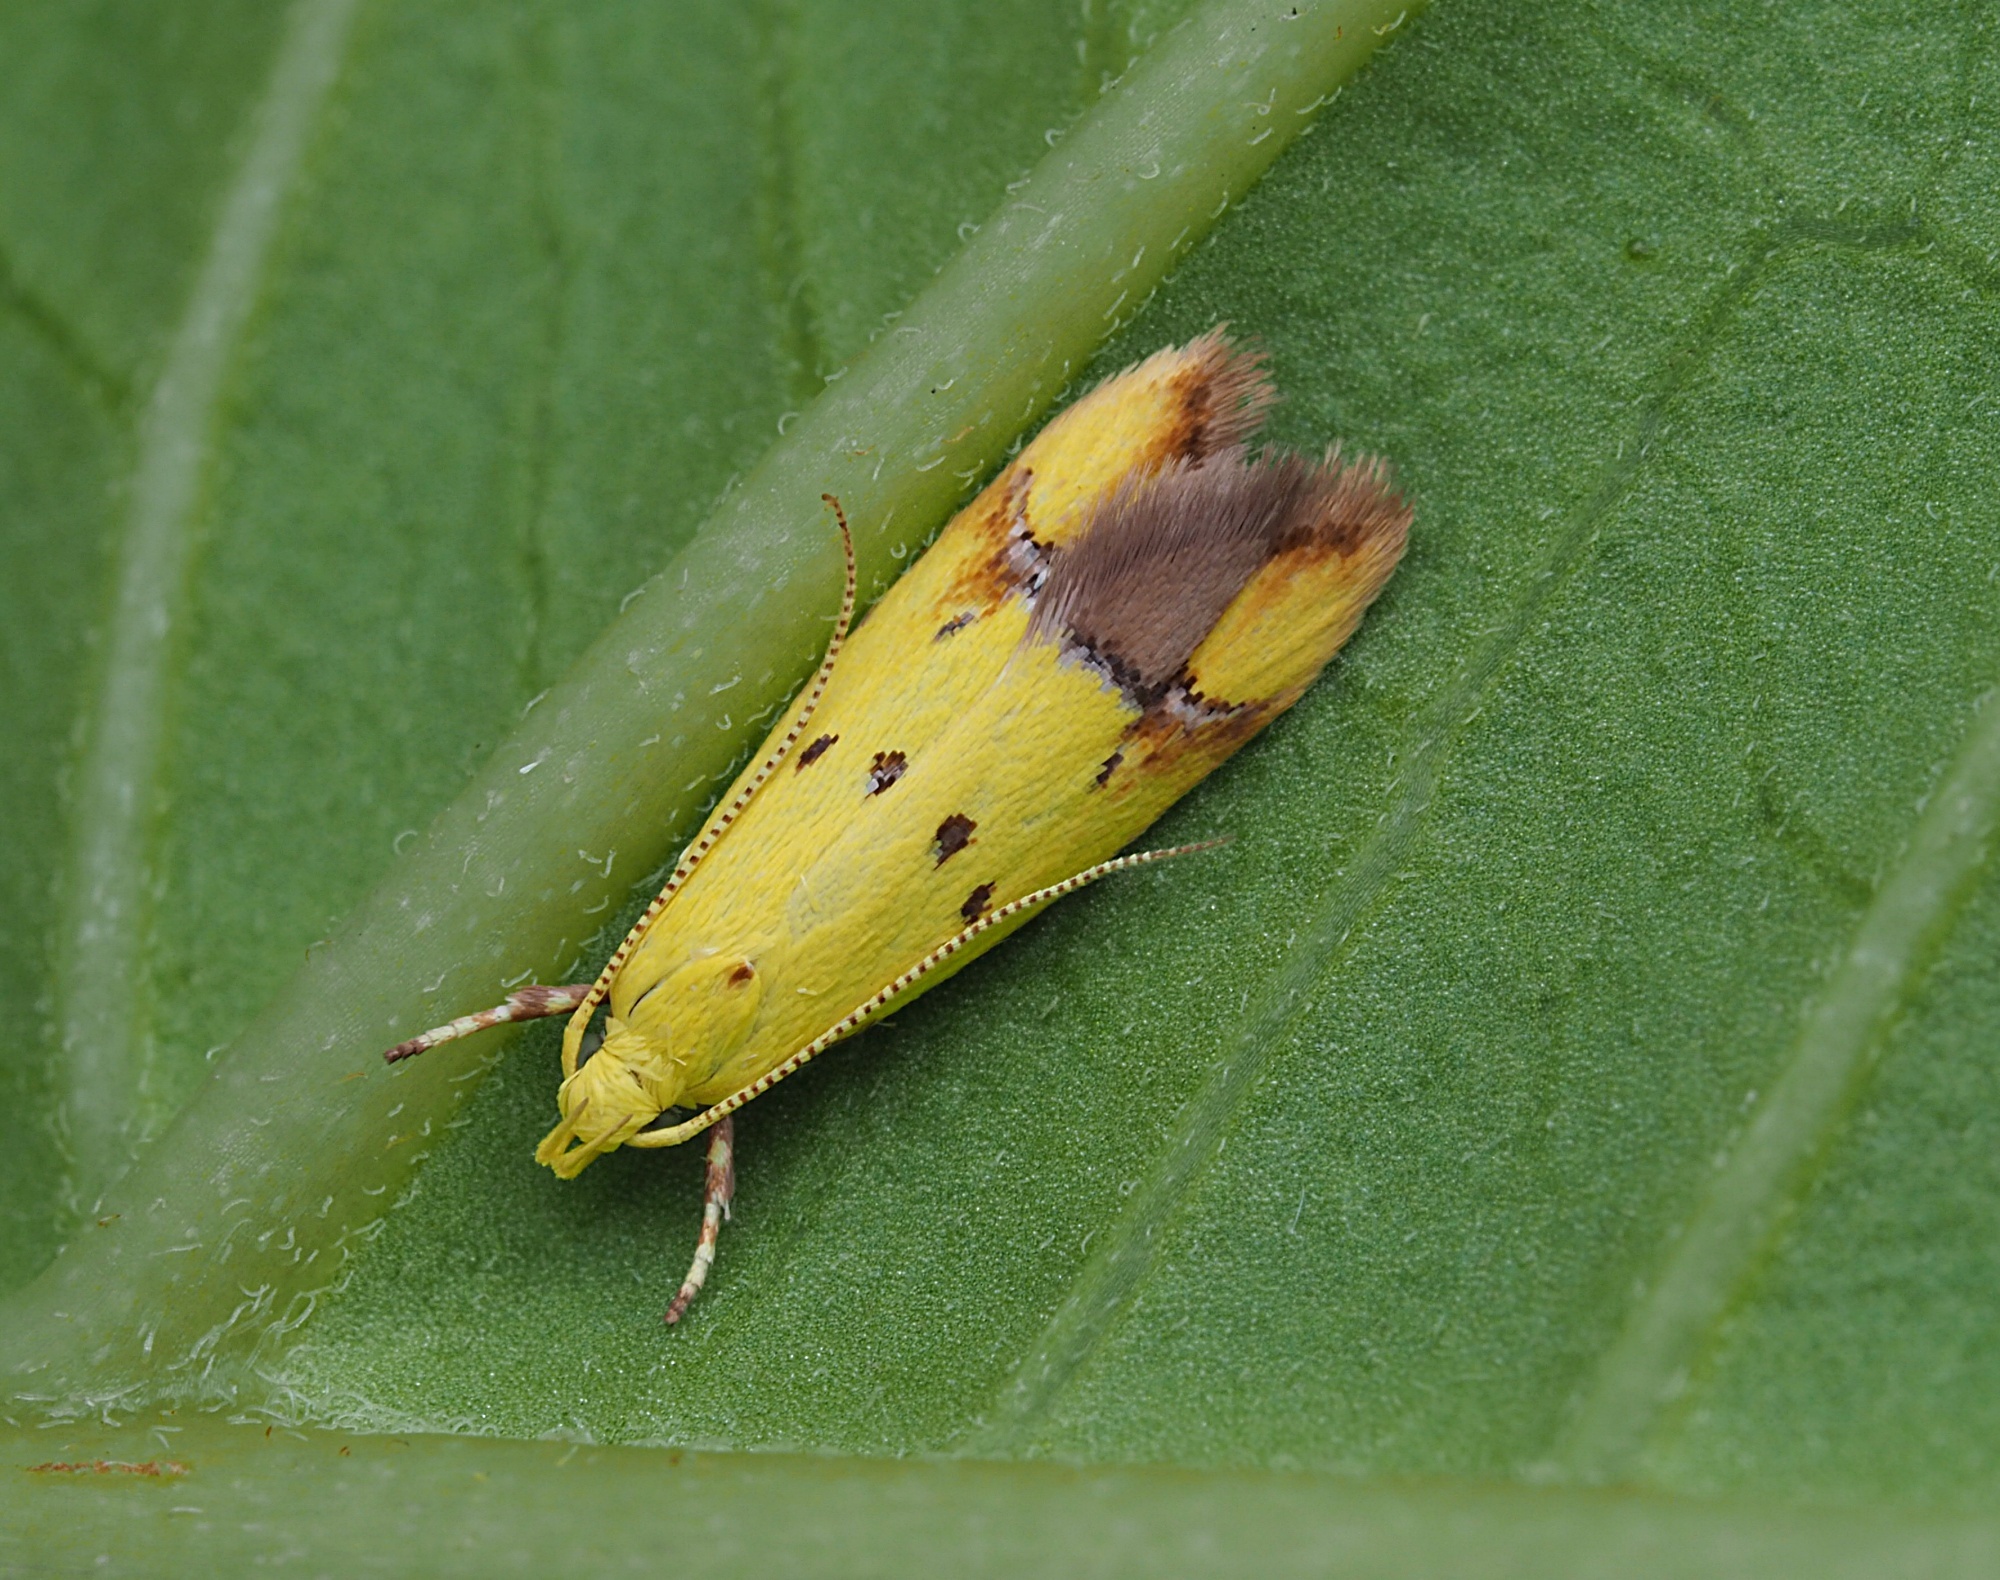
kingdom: Animalia
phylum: Arthropoda
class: Insecta
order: Lepidoptera
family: Oecophoridae
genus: Gymnobathra
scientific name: Gymnobathra flavidella
